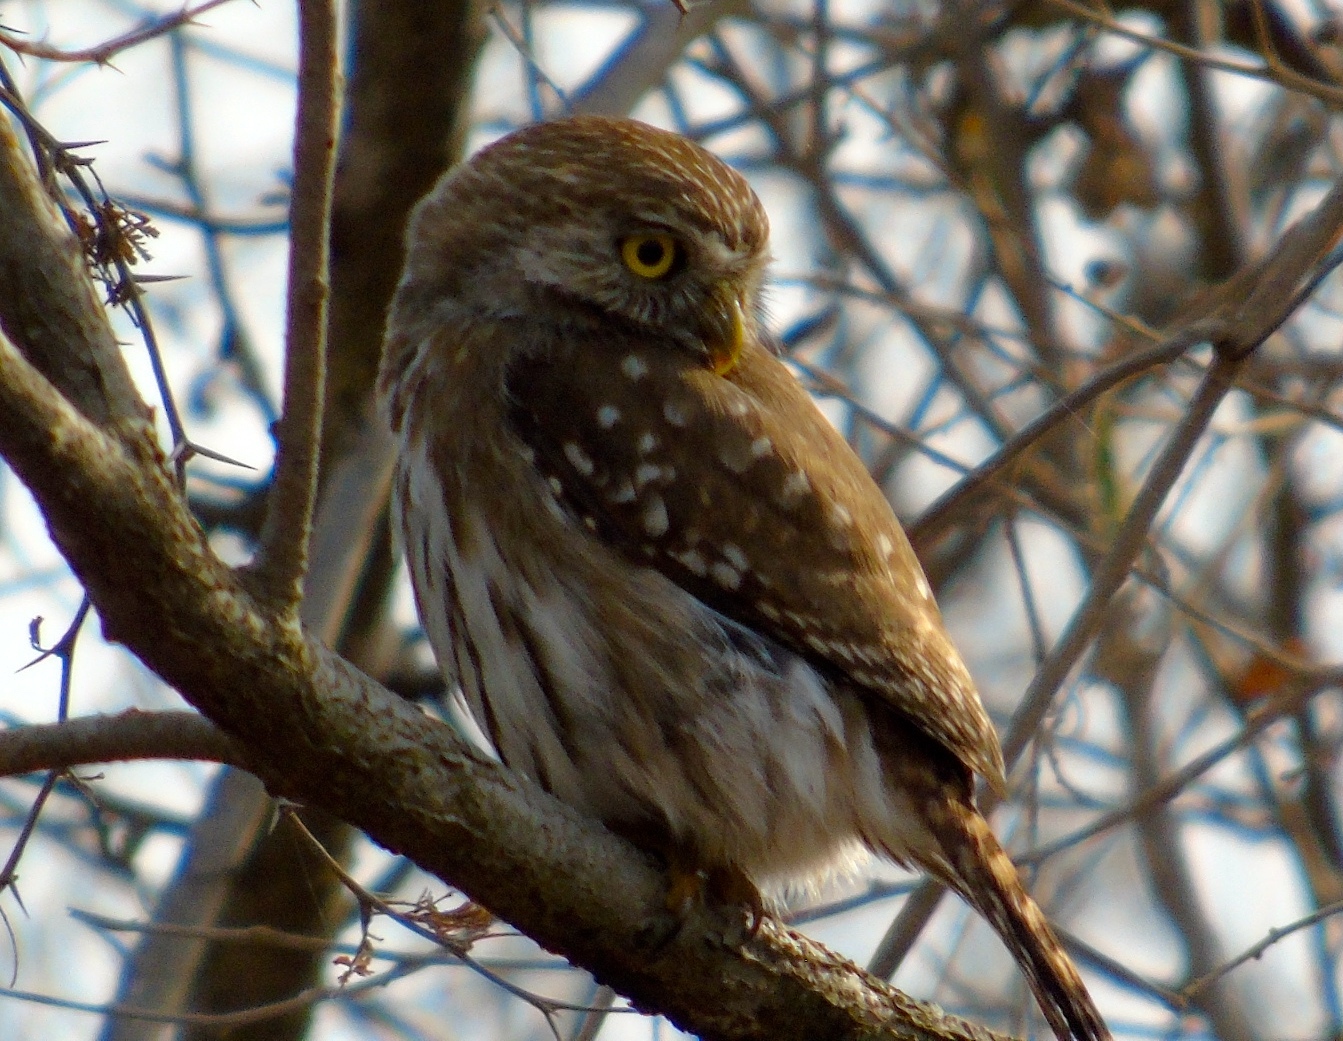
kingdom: Animalia
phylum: Chordata
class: Aves
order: Strigiformes
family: Strigidae
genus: Glaucidium
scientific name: Glaucidium brasilianum
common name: Ferruginous pygmy-owl
